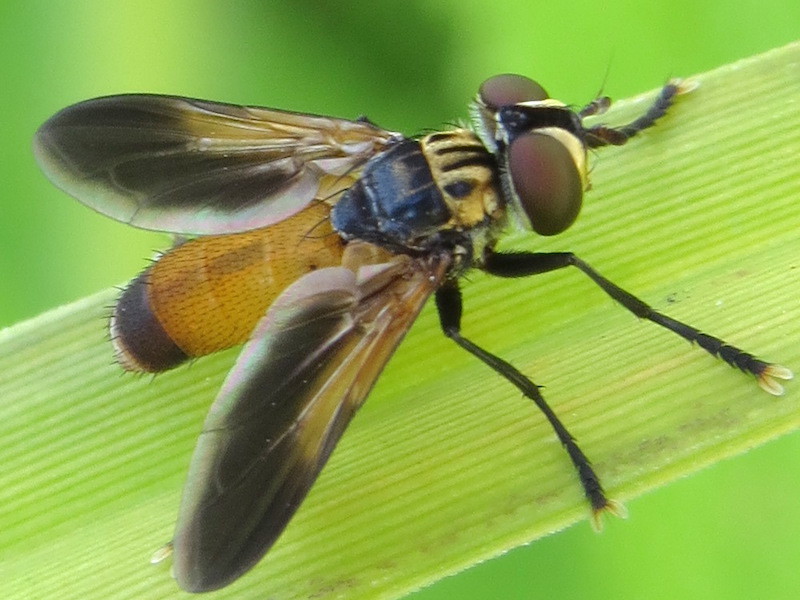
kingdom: Animalia
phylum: Arthropoda
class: Insecta
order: Diptera
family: Tachinidae
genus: Trichopoda
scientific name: Trichopoda pennipes
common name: Tachinid fly
